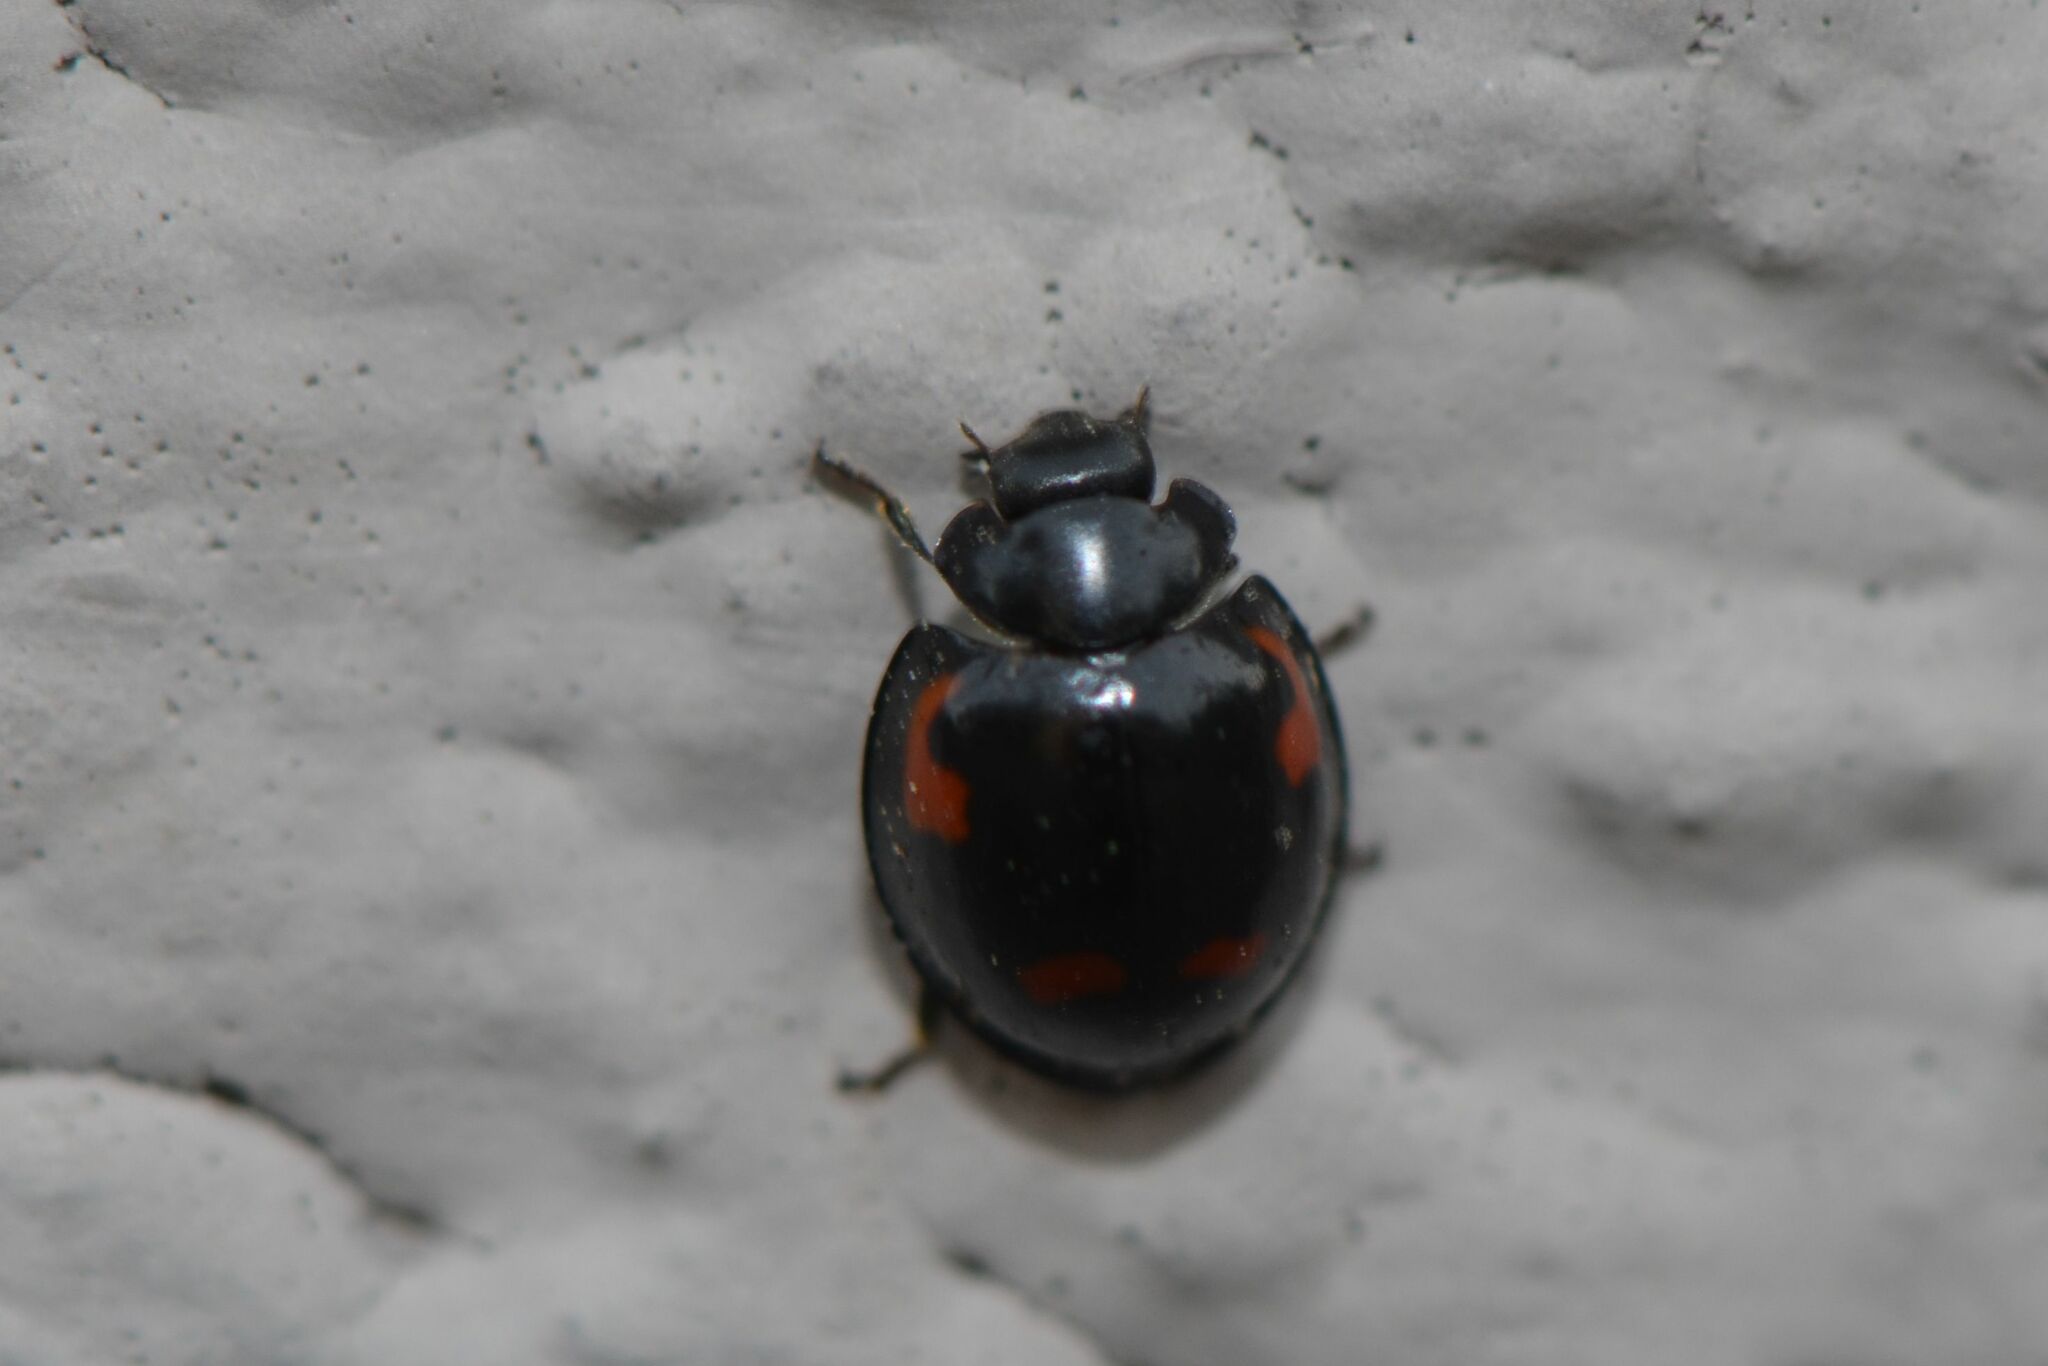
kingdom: Animalia
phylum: Arthropoda
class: Insecta
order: Coleoptera
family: Coccinellidae
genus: Brumus
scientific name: Brumus quadripustulatus
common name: Ladybird beetle
